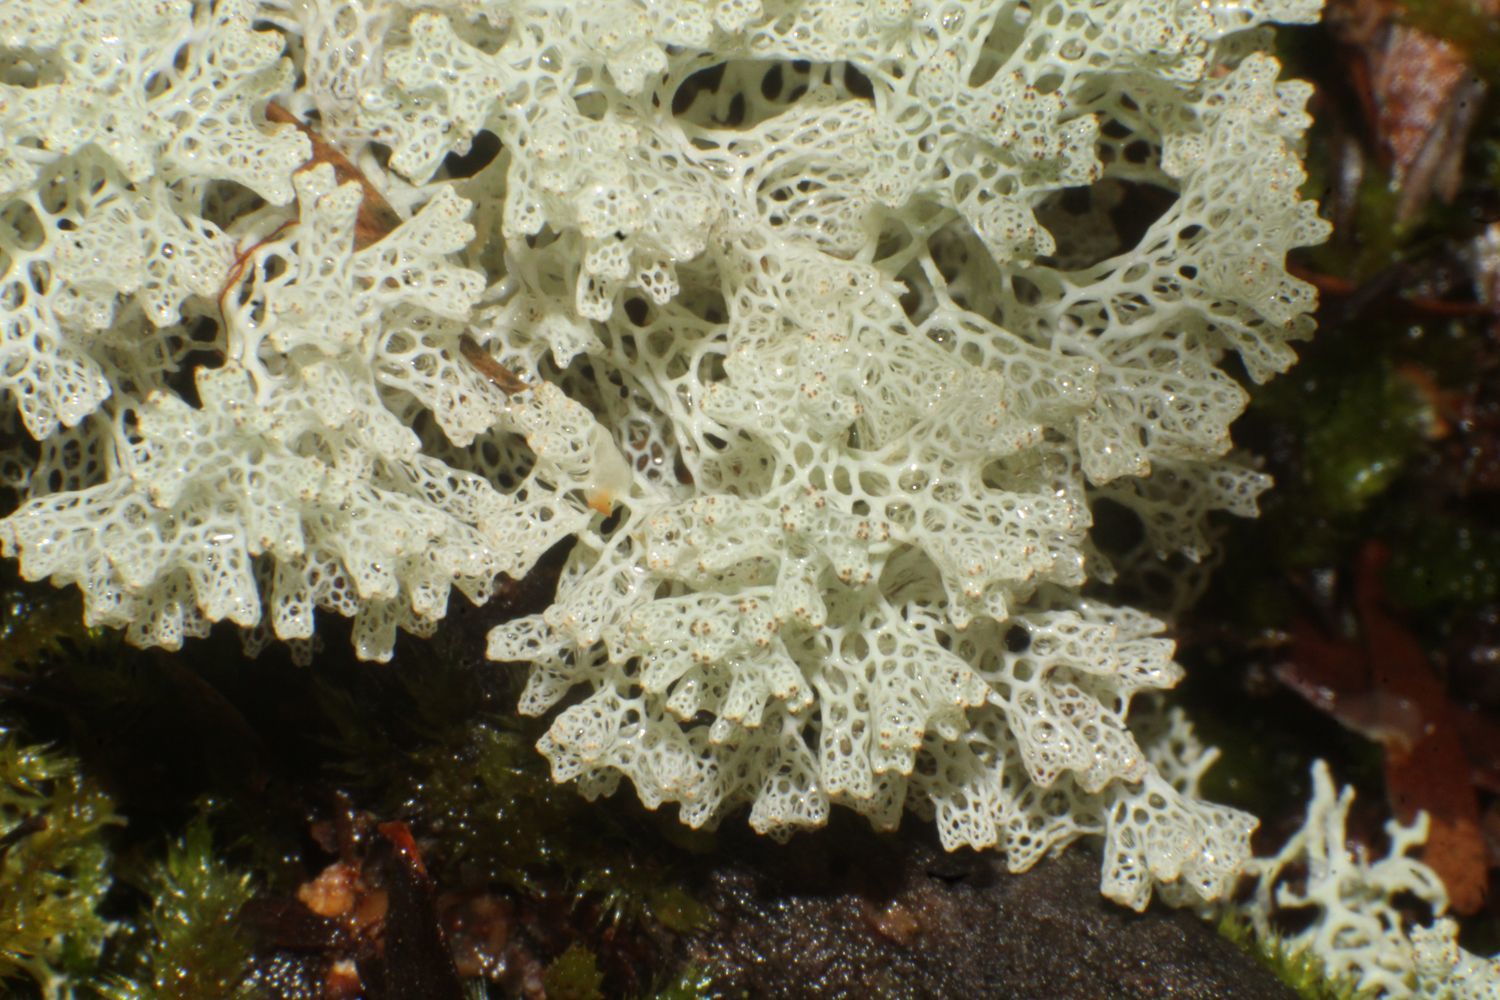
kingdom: Fungi
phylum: Ascomycota
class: Lecanoromycetes
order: Lecanorales
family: Cladoniaceae
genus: Pulchrocladia
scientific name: Pulchrocladia retipora
